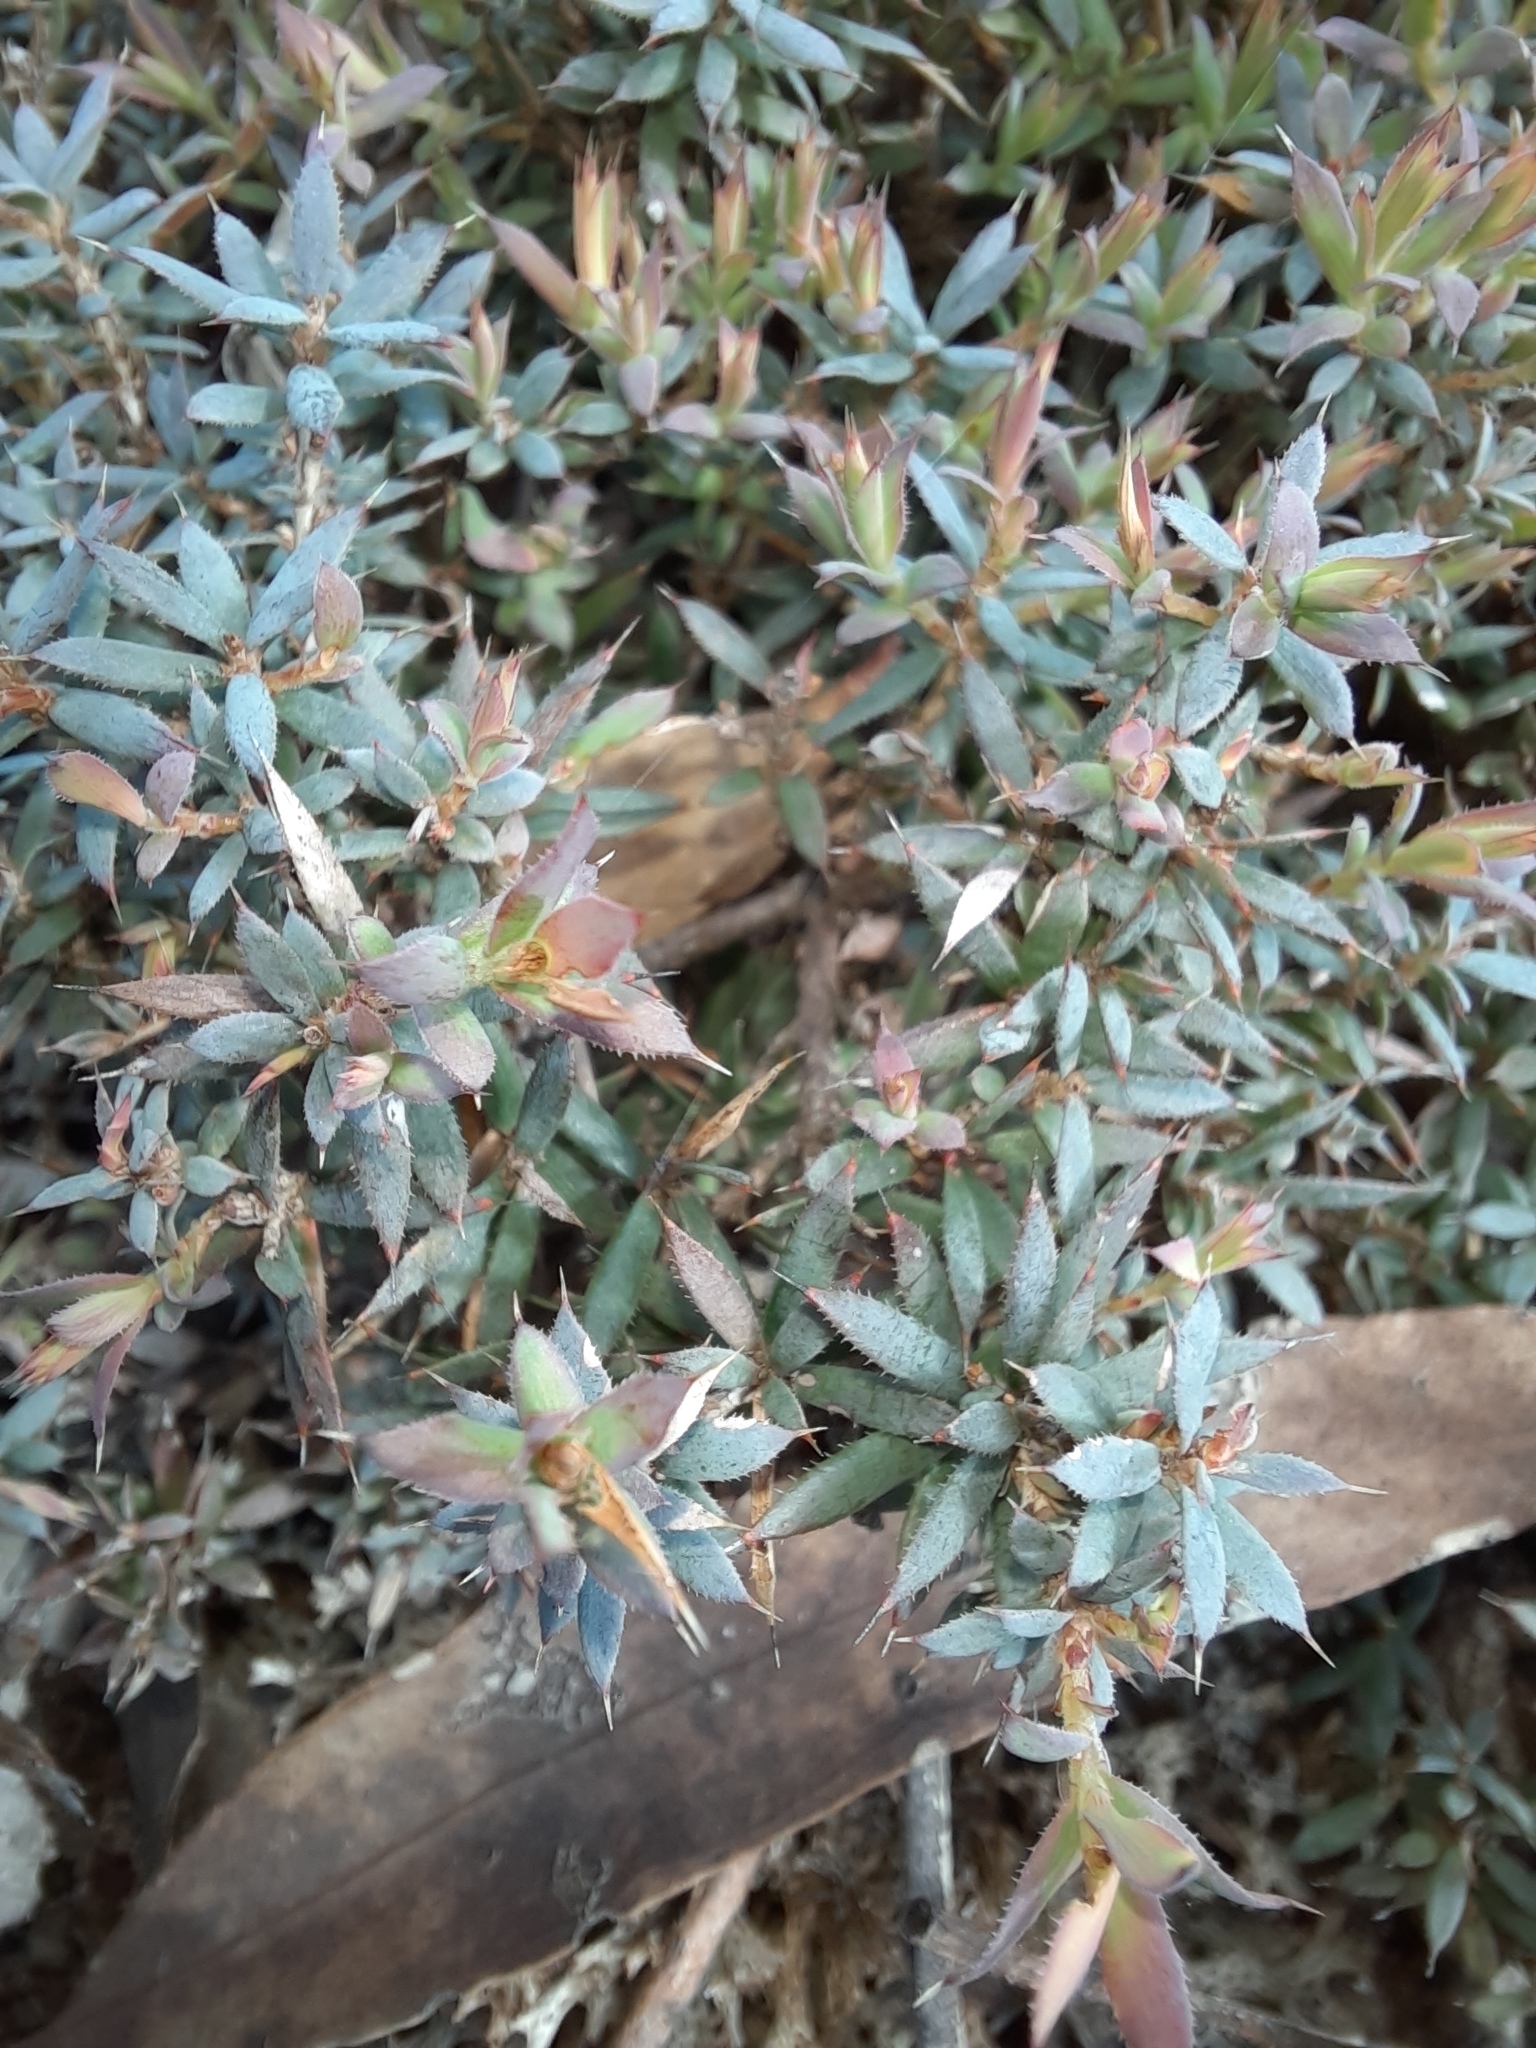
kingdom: Plantae
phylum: Tracheophyta
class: Magnoliopsida
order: Ericales
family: Ericaceae
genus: Styphelia
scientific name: Styphelia humifusa
